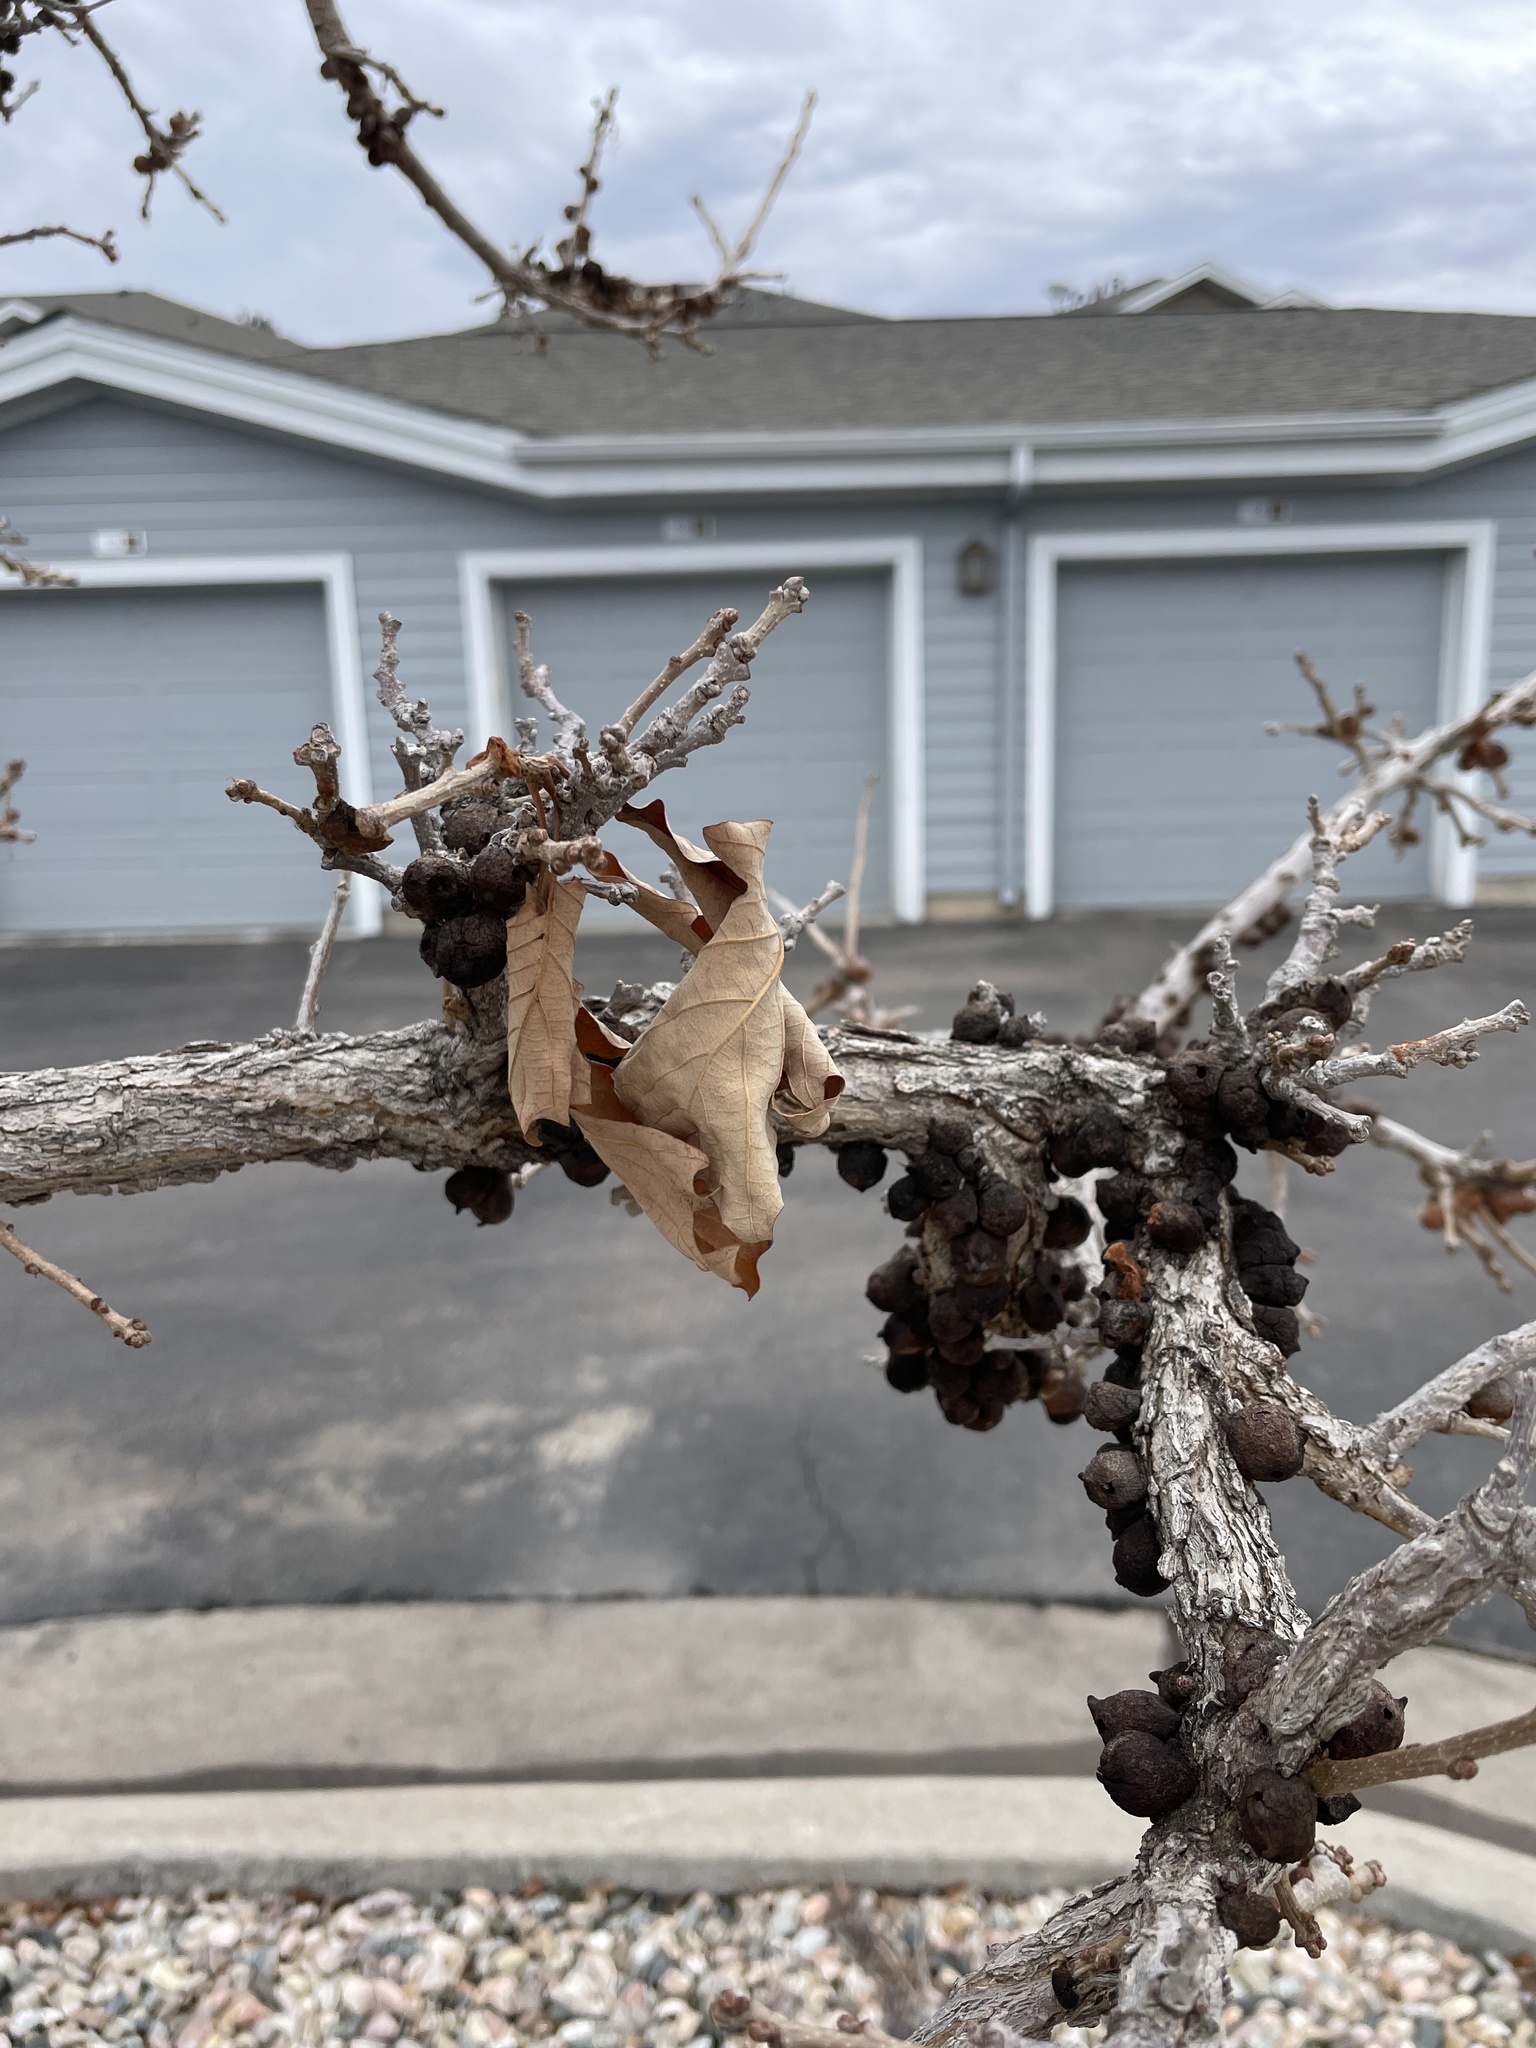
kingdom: Animalia
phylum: Arthropoda
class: Insecta
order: Hymenoptera
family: Cynipidae
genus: Disholcaspis
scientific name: Disholcaspis
